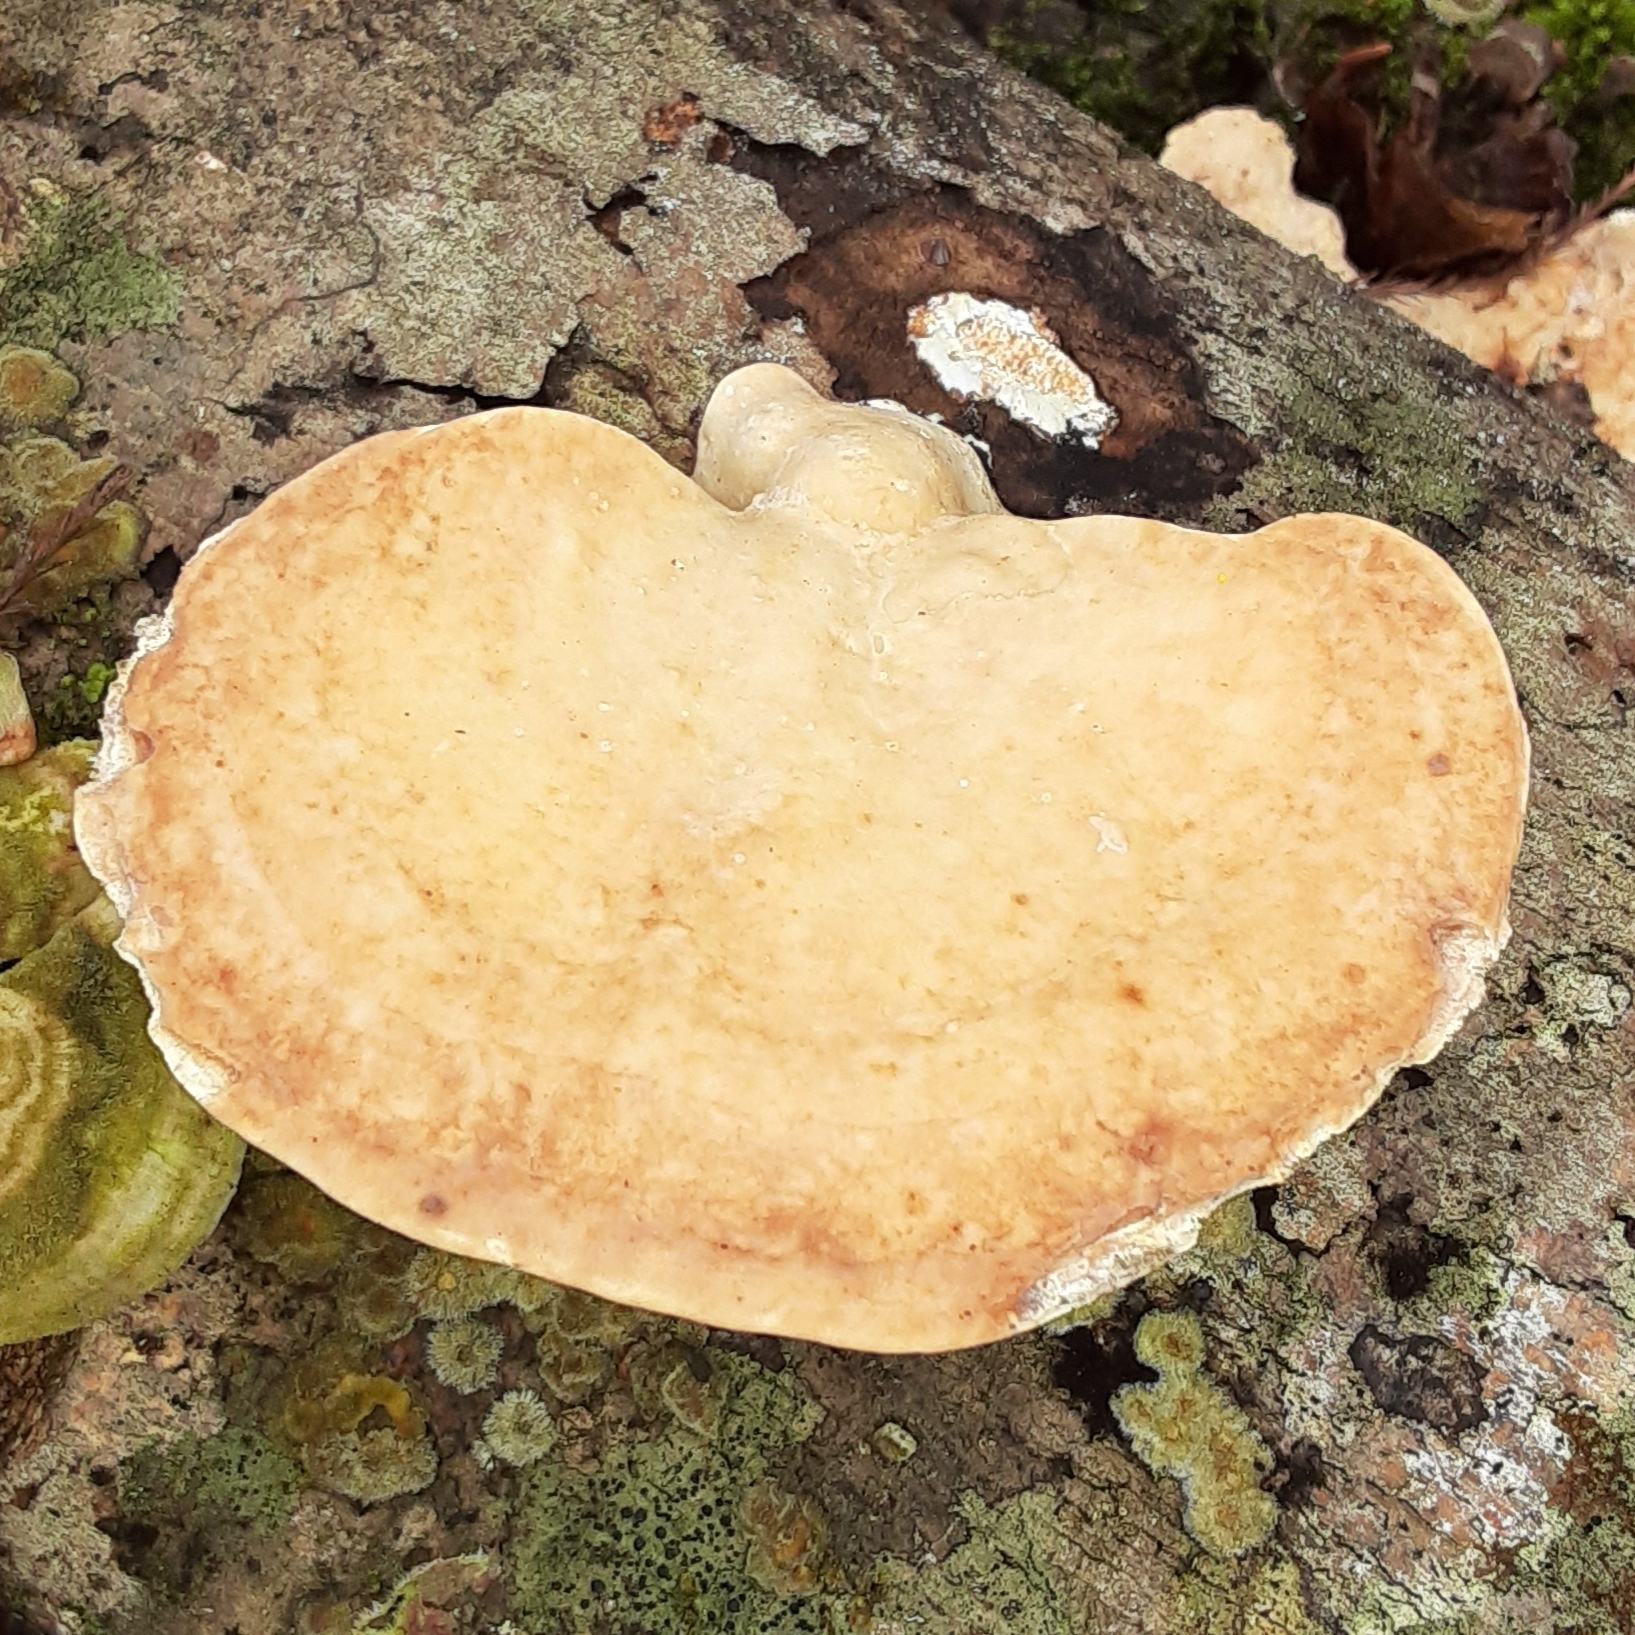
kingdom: Fungi
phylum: Basidiomycota
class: Agaricomycetes
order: Polyporales
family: Polyporaceae
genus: Trametes
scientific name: Trametes
